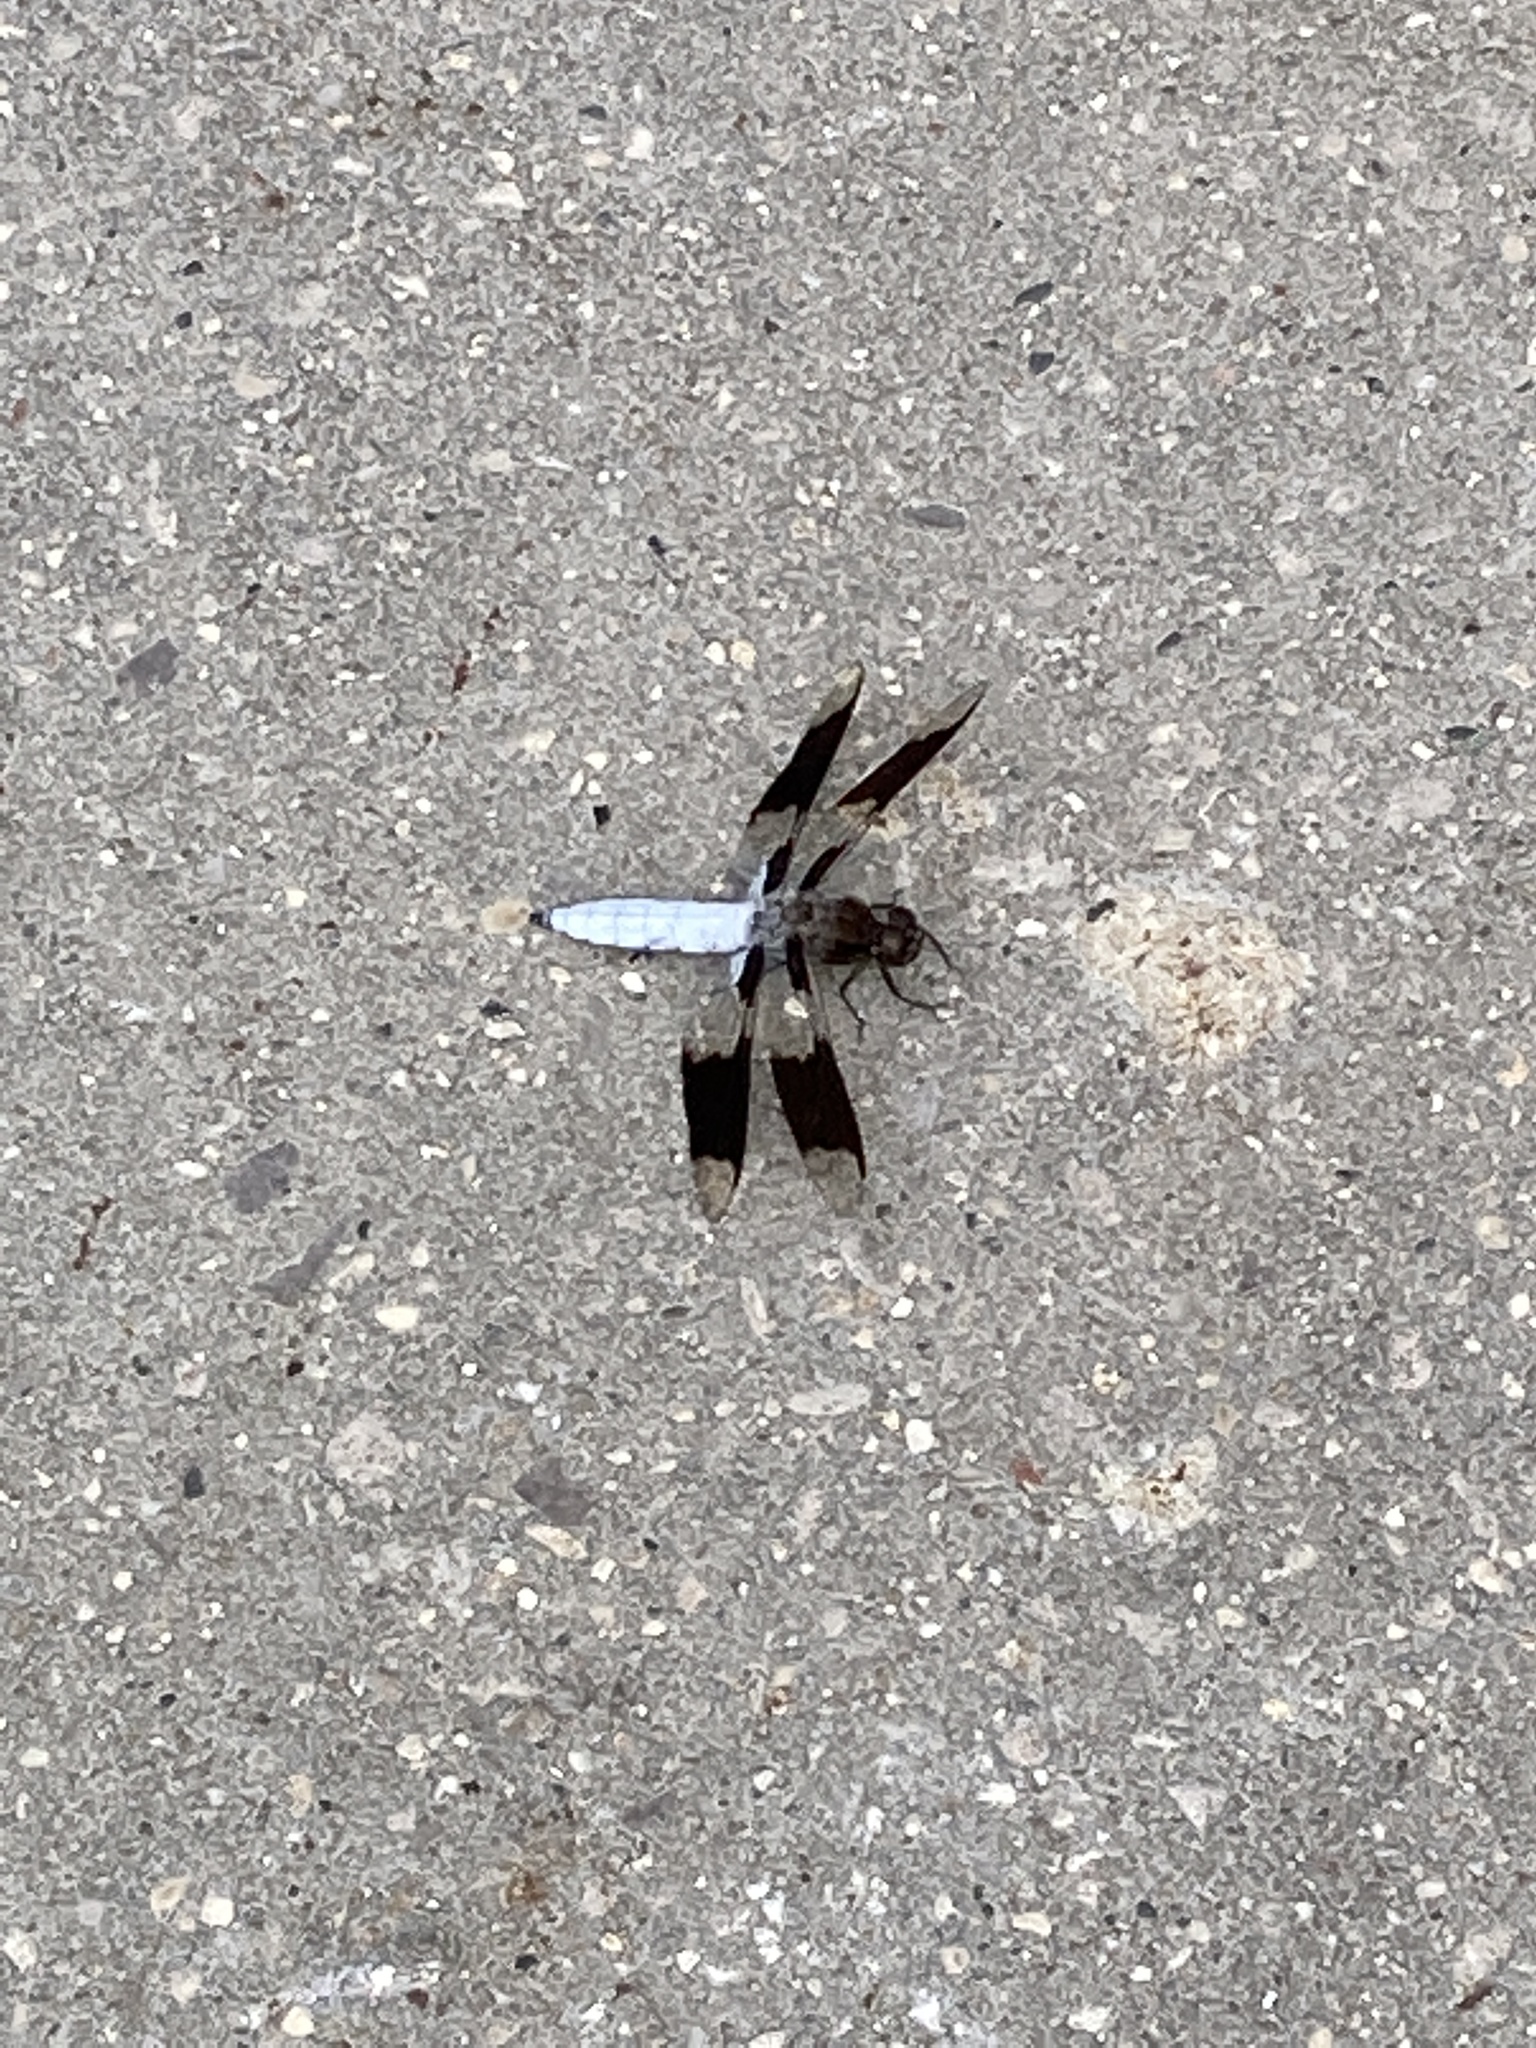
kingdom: Animalia
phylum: Arthropoda
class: Insecta
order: Odonata
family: Libellulidae
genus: Plathemis
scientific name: Plathemis lydia
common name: Common whitetail
